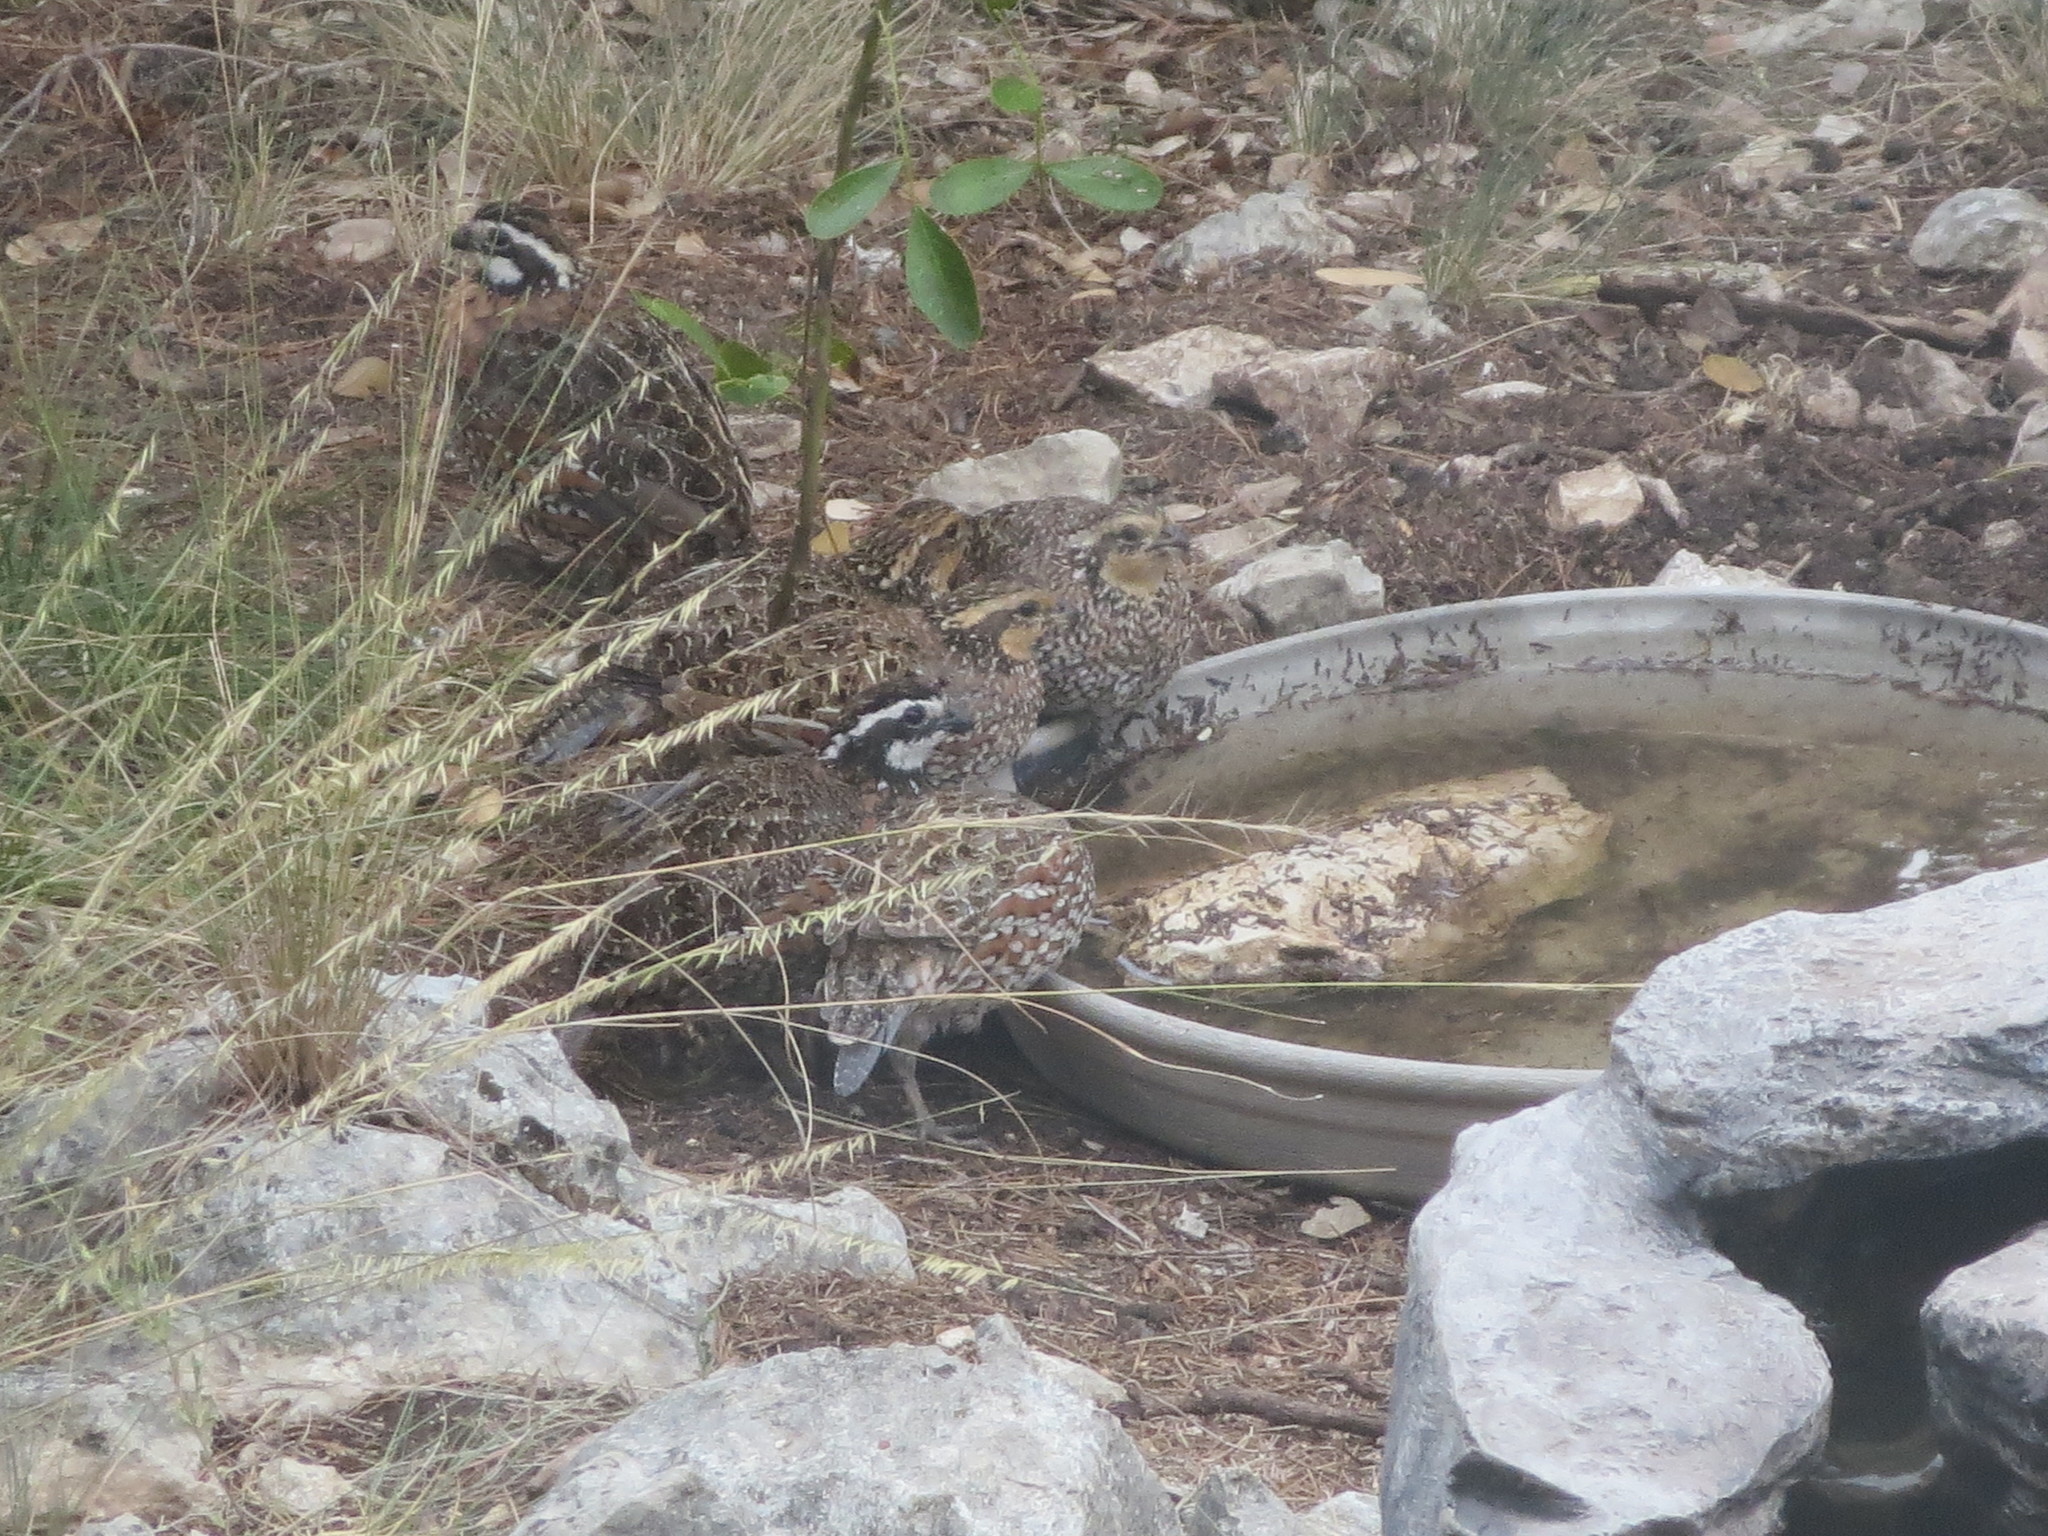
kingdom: Animalia
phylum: Chordata
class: Aves
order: Galliformes
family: Odontophoridae
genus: Colinus
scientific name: Colinus virginianus
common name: Northern bobwhite
